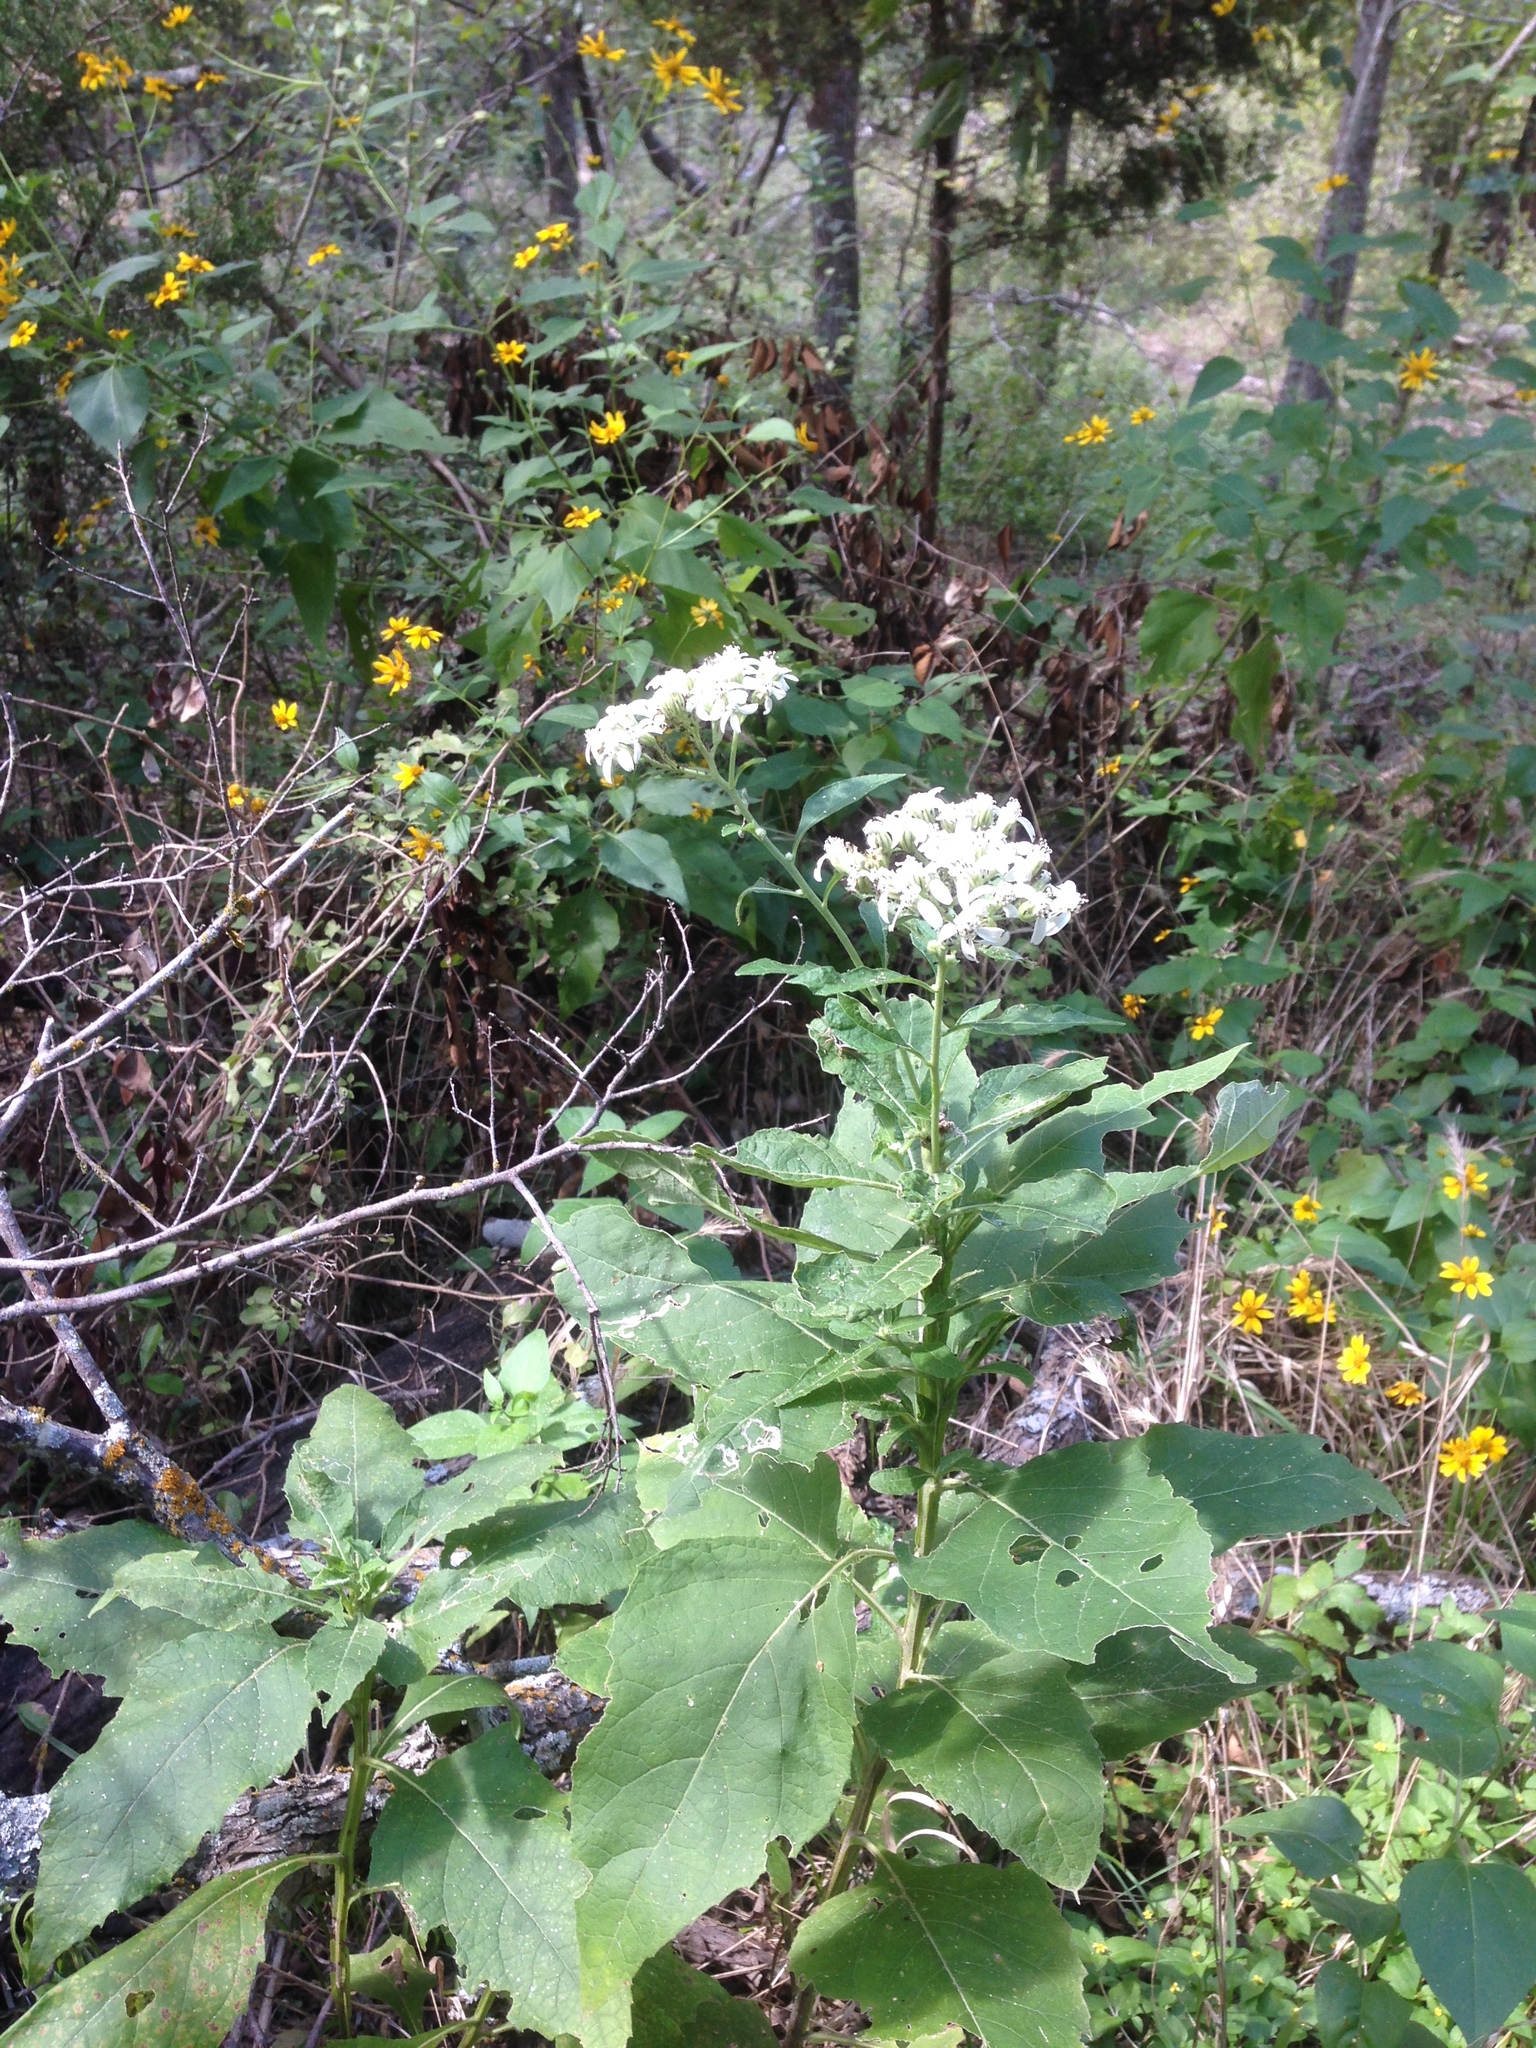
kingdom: Plantae
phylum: Tracheophyta
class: Magnoliopsida
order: Asterales
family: Asteraceae
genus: Verbesina
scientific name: Verbesina virginica
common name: Frostweed
